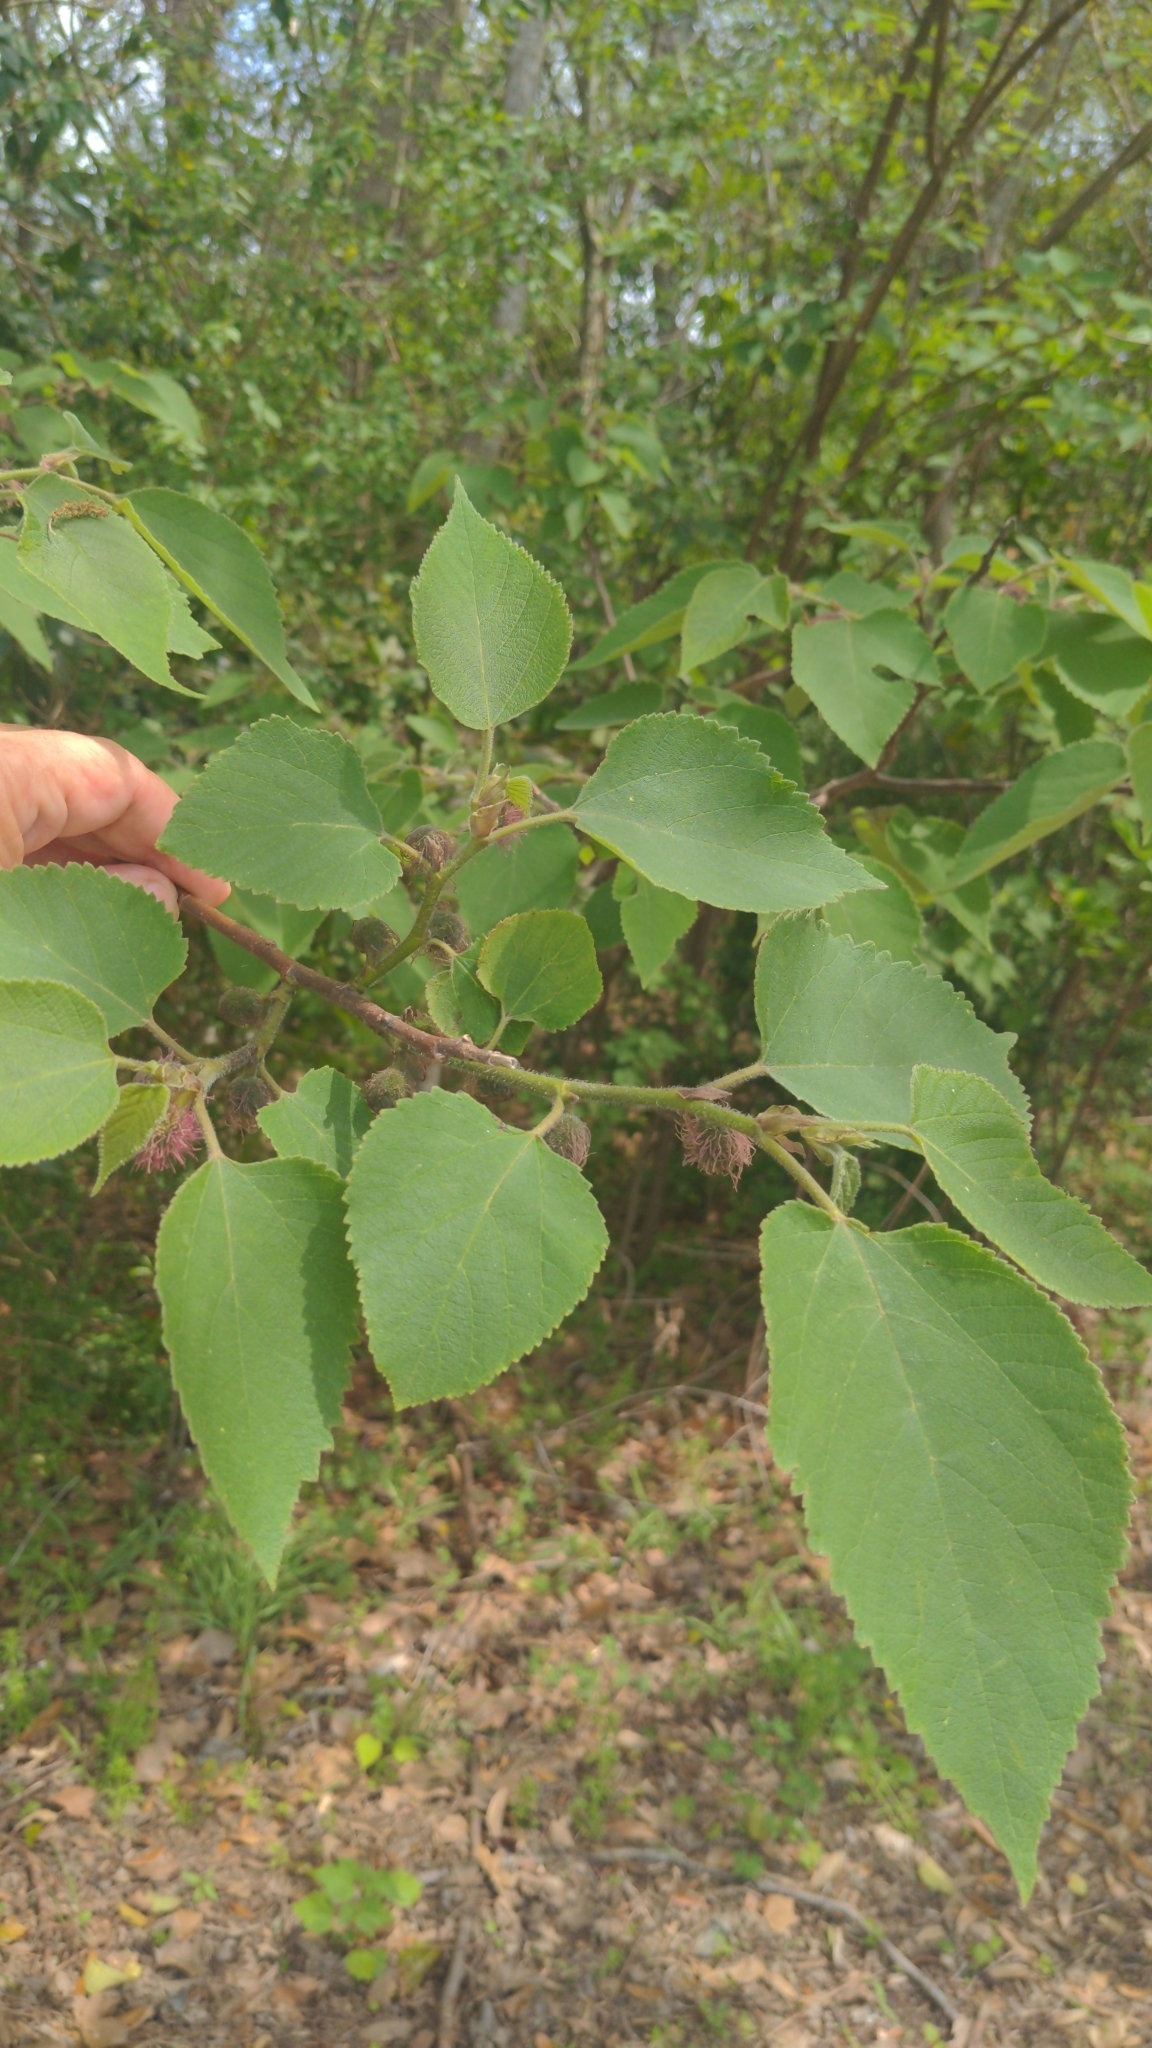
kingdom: Plantae
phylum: Tracheophyta
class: Magnoliopsida
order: Rosales
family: Moraceae
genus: Broussonetia
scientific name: Broussonetia papyrifera
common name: Paper mulberry
